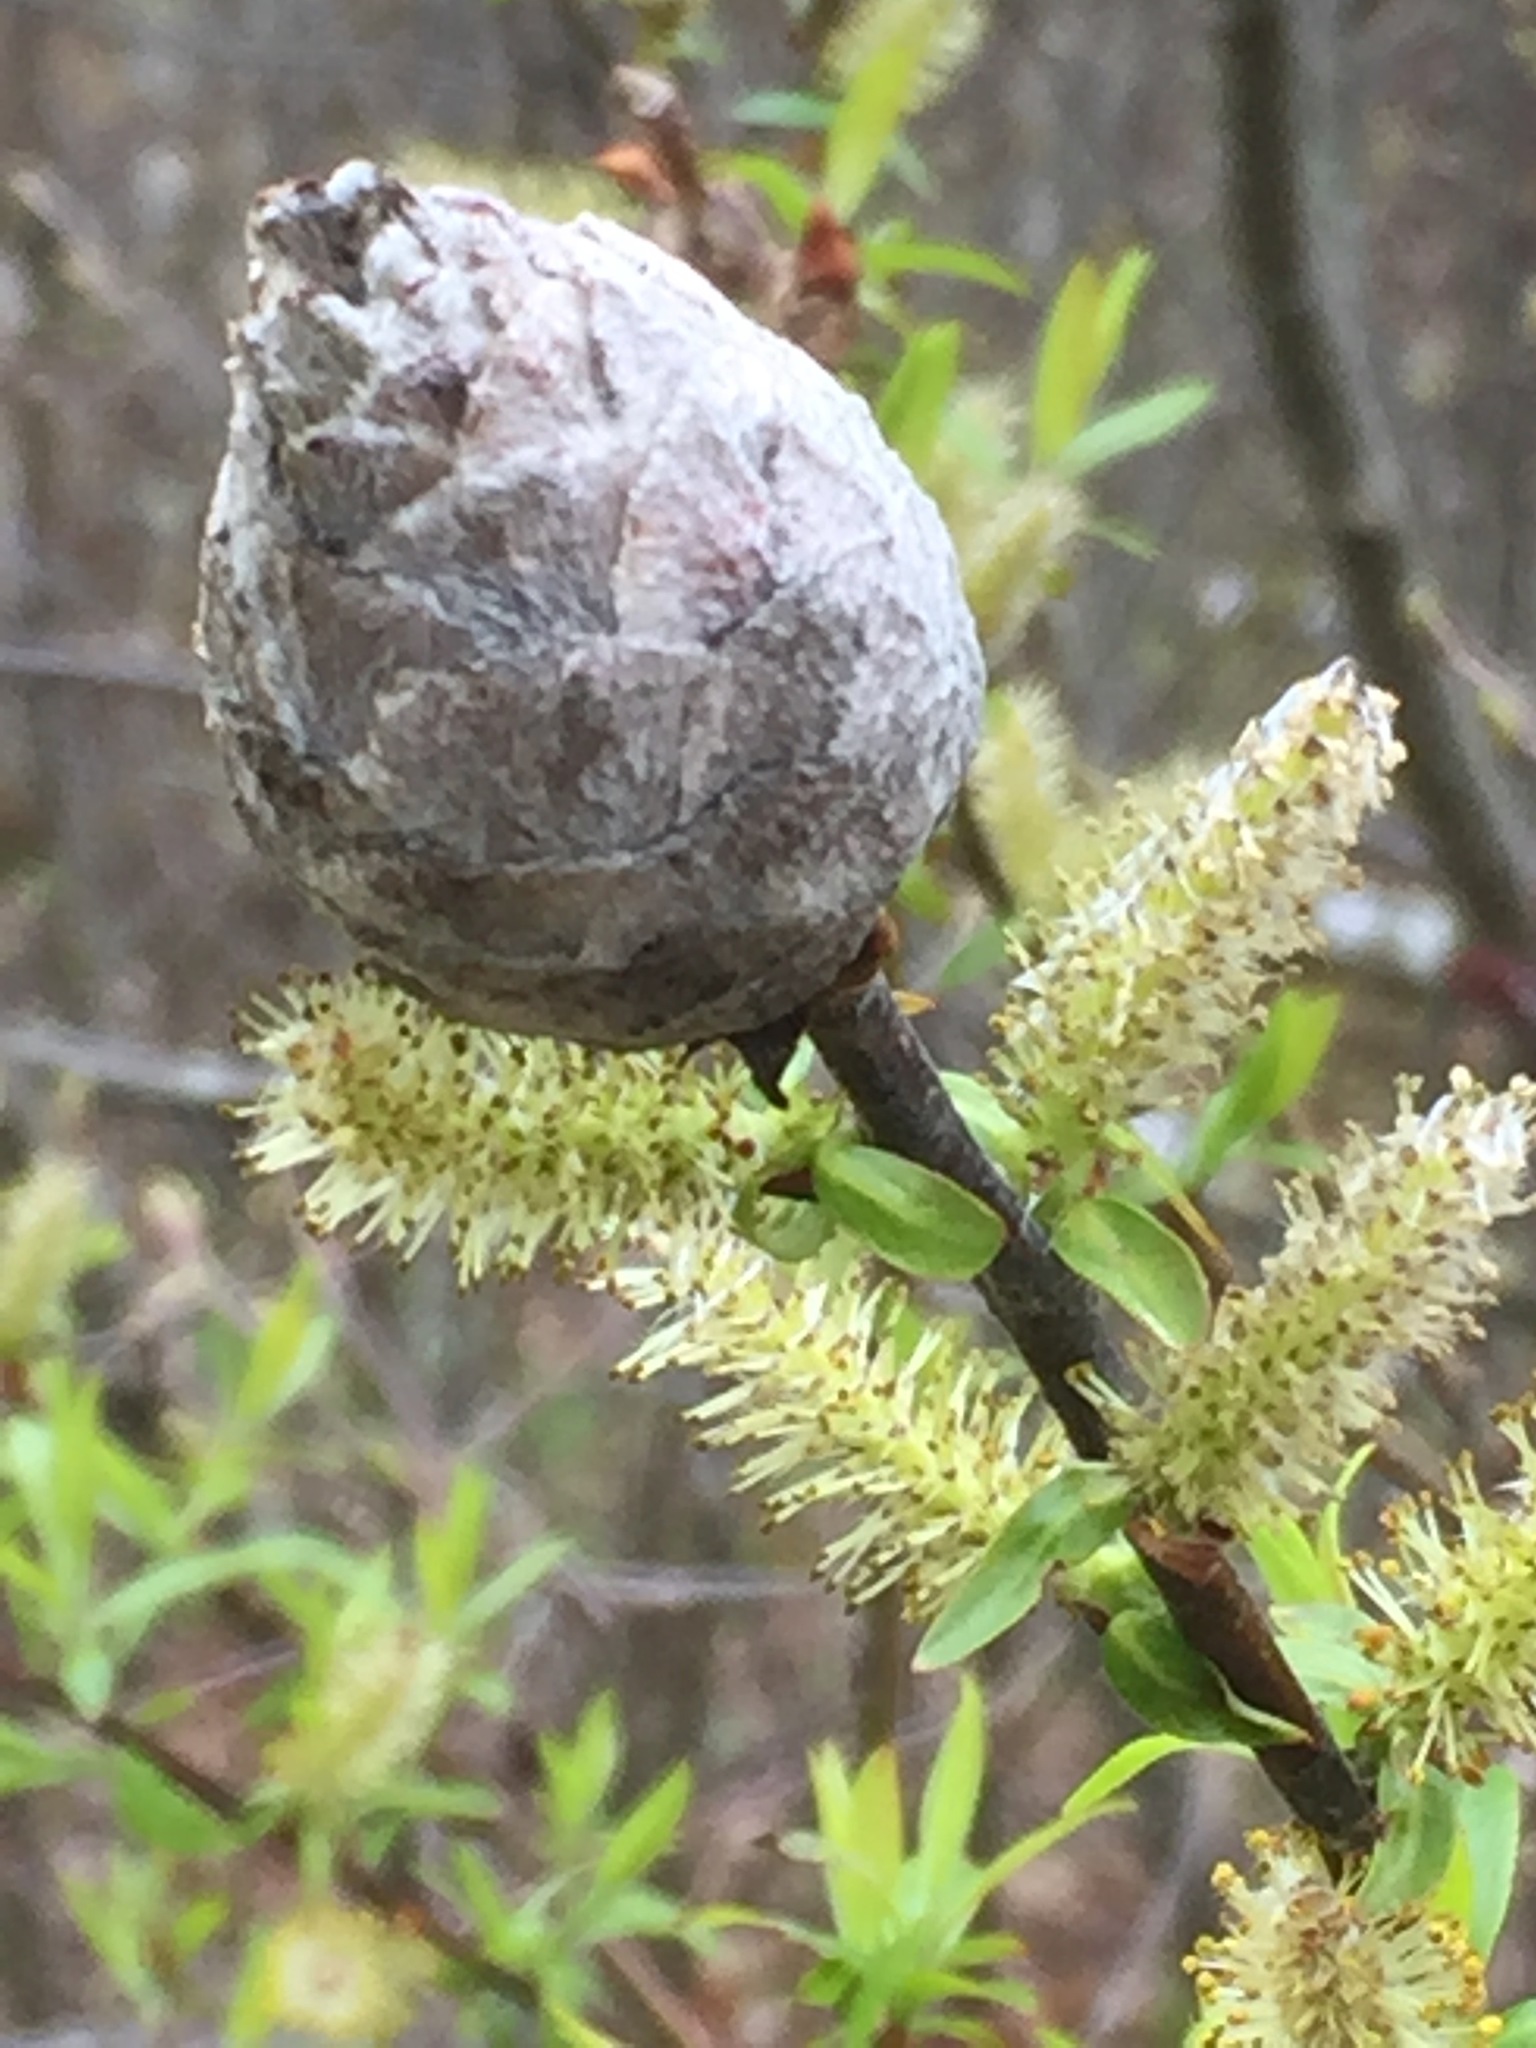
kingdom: Animalia
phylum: Arthropoda
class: Insecta
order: Diptera
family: Cecidomyiidae
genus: Rabdophaga
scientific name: Rabdophaga strobiloides
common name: Willow pinecone gall midge
